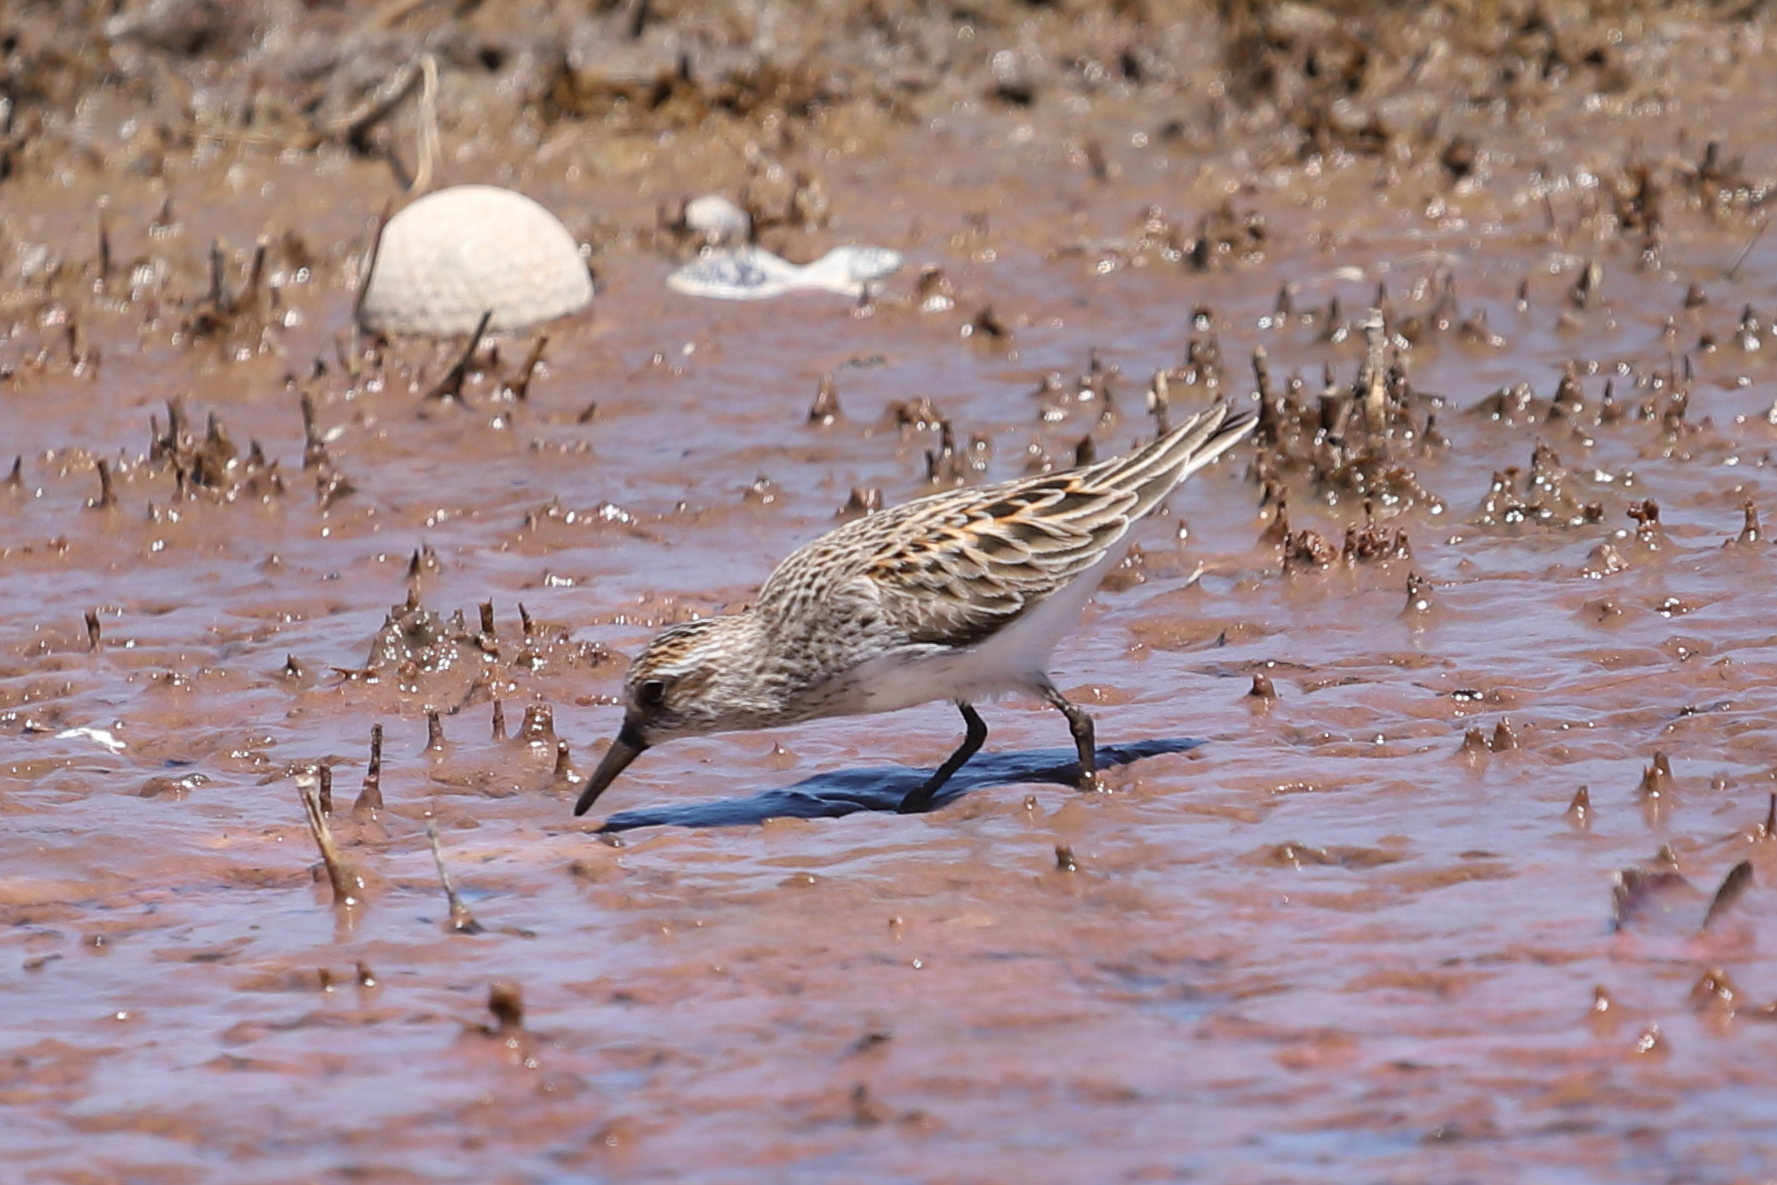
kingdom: Animalia
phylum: Chordata
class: Aves
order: Charadriiformes
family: Scolopacidae
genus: Calidris
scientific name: Calidris pusilla
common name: Semipalmated sandpiper
